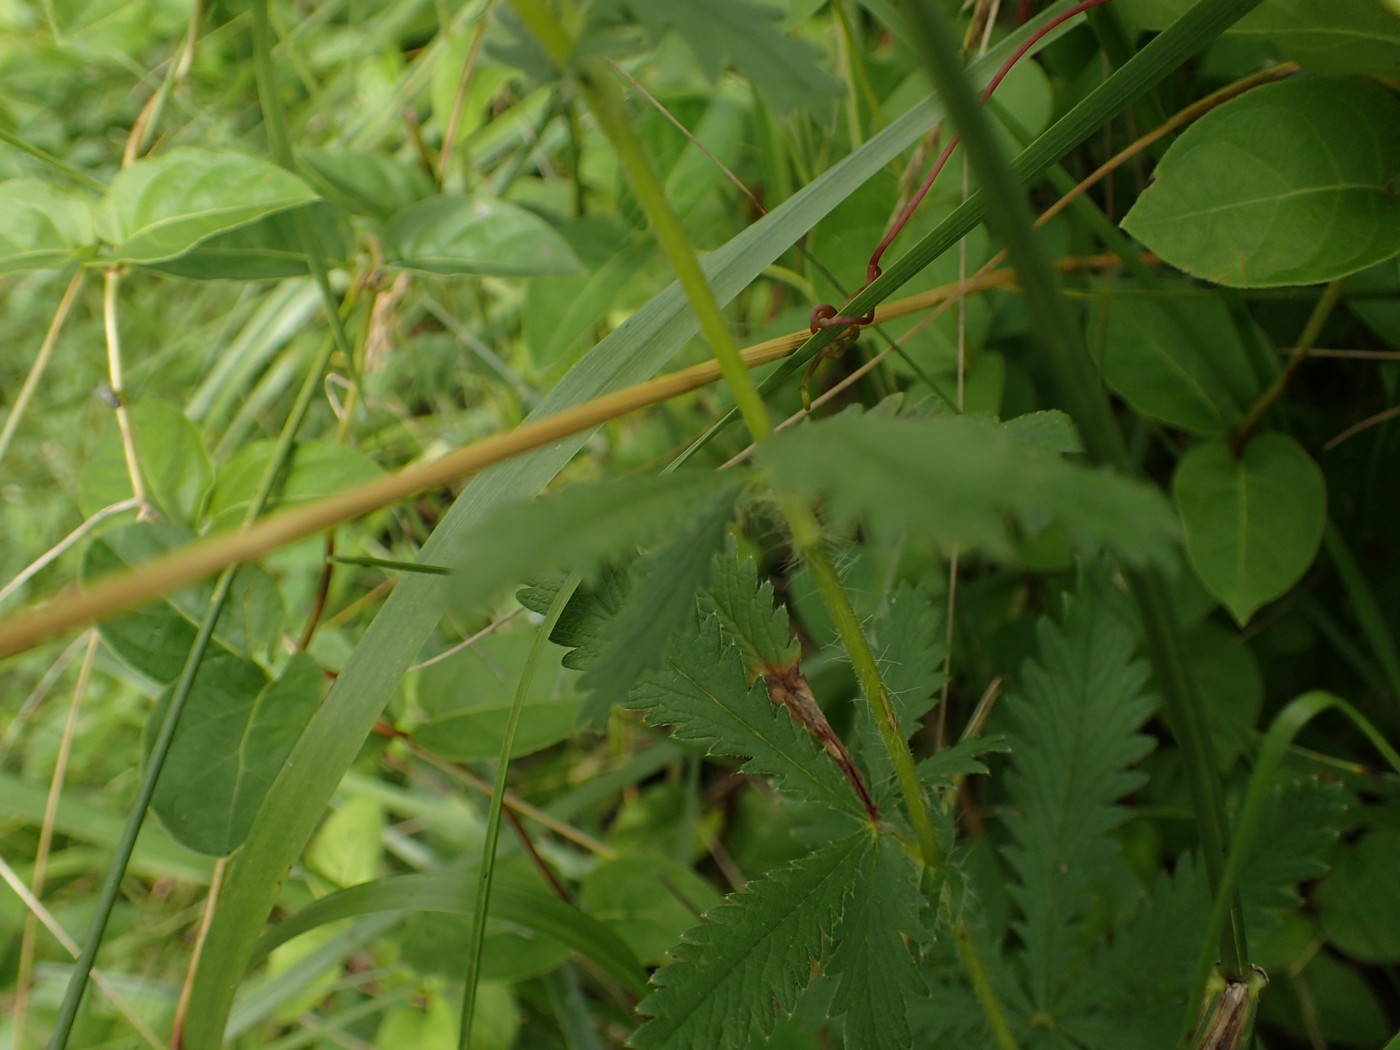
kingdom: Plantae
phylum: Tracheophyta
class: Magnoliopsida
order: Rosales
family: Rosaceae
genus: Potentilla
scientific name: Potentilla recta
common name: Sulphur cinquefoil
